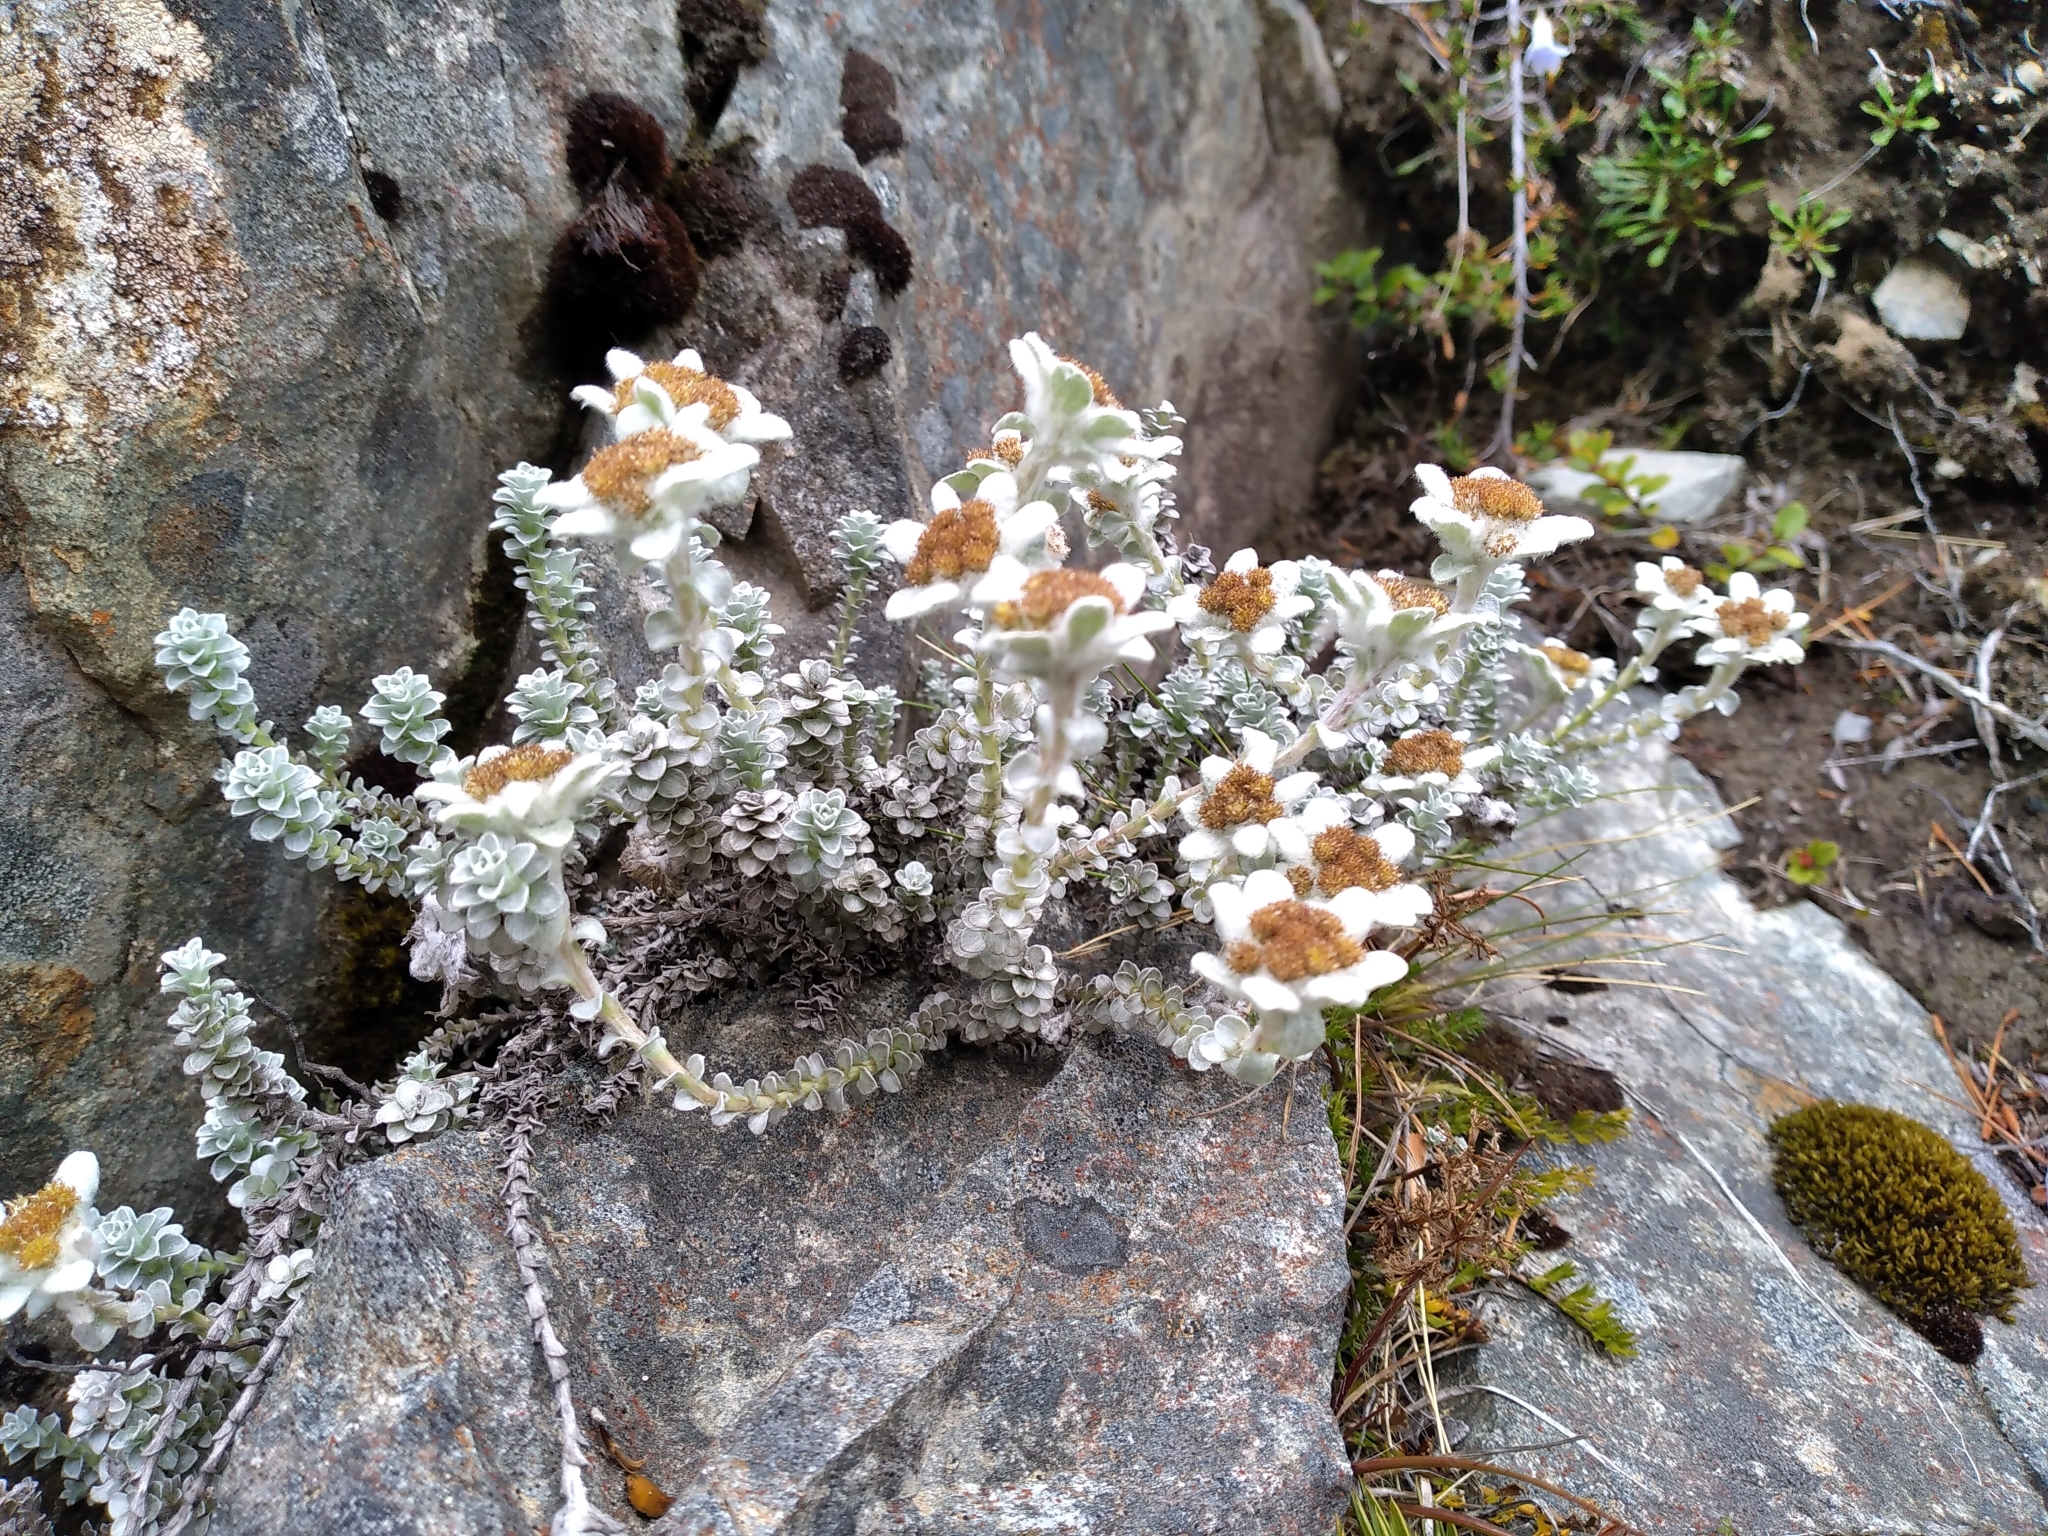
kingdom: Plantae
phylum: Tracheophyta
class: Magnoliopsida
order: Asterales
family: Asteraceae
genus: Leucogenes
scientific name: Leucogenes grandiceps
